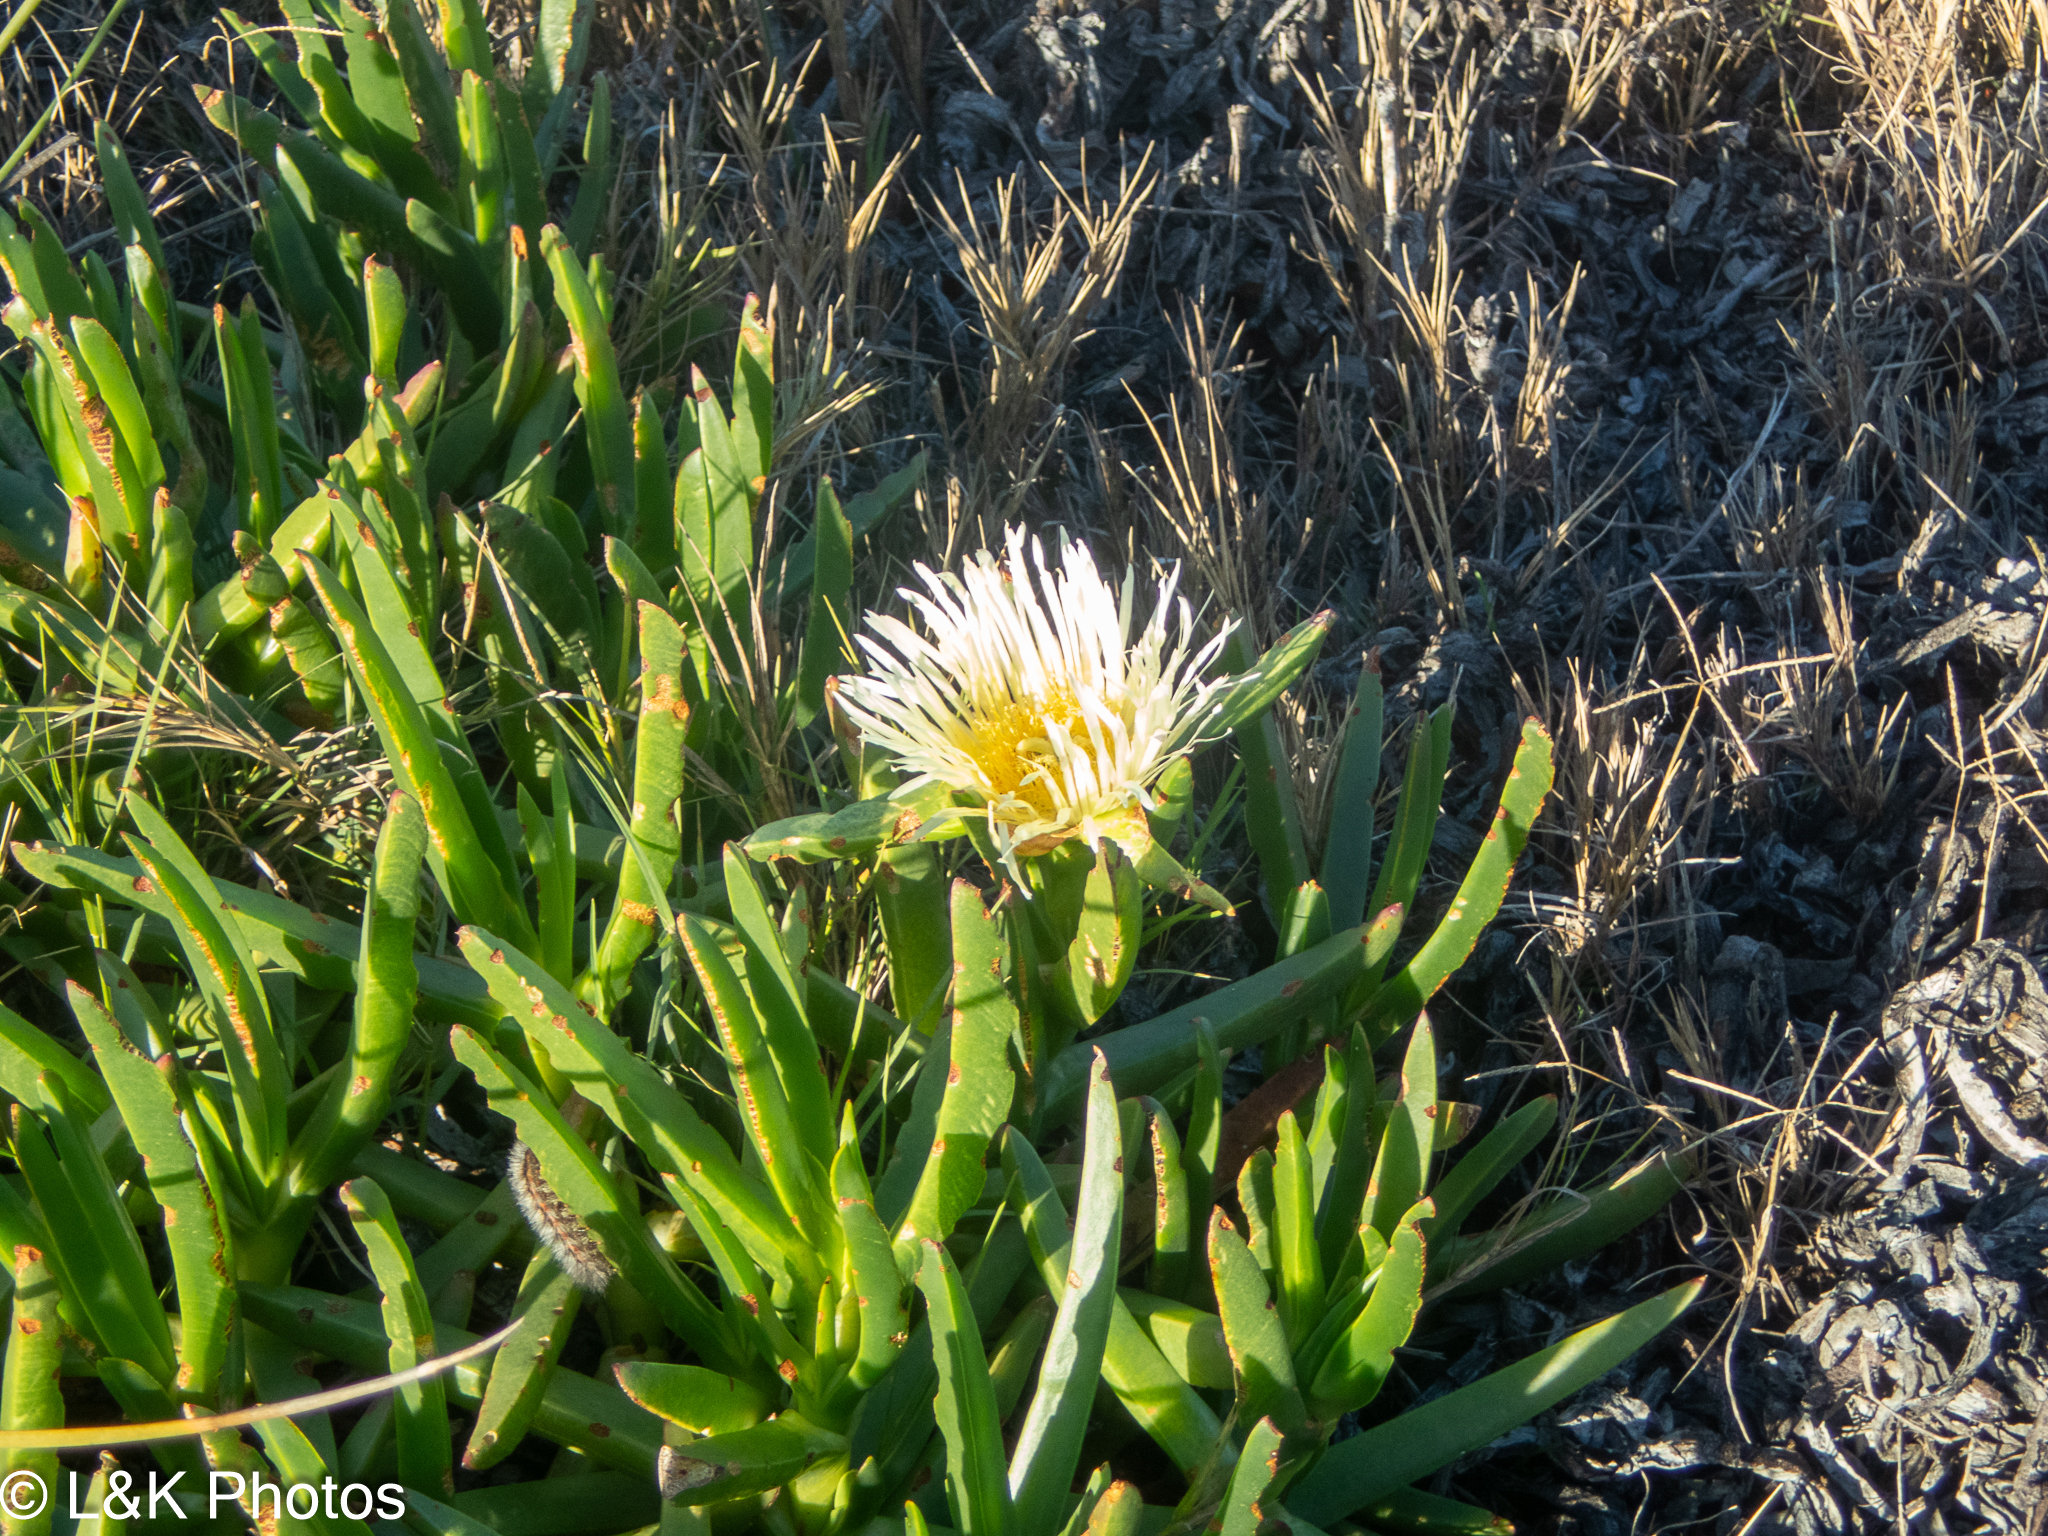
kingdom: Plantae
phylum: Tracheophyta
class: Magnoliopsida
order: Caryophyllales
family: Aizoaceae
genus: Carpobrotus
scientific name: Carpobrotus edulis
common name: Hottentot-fig
